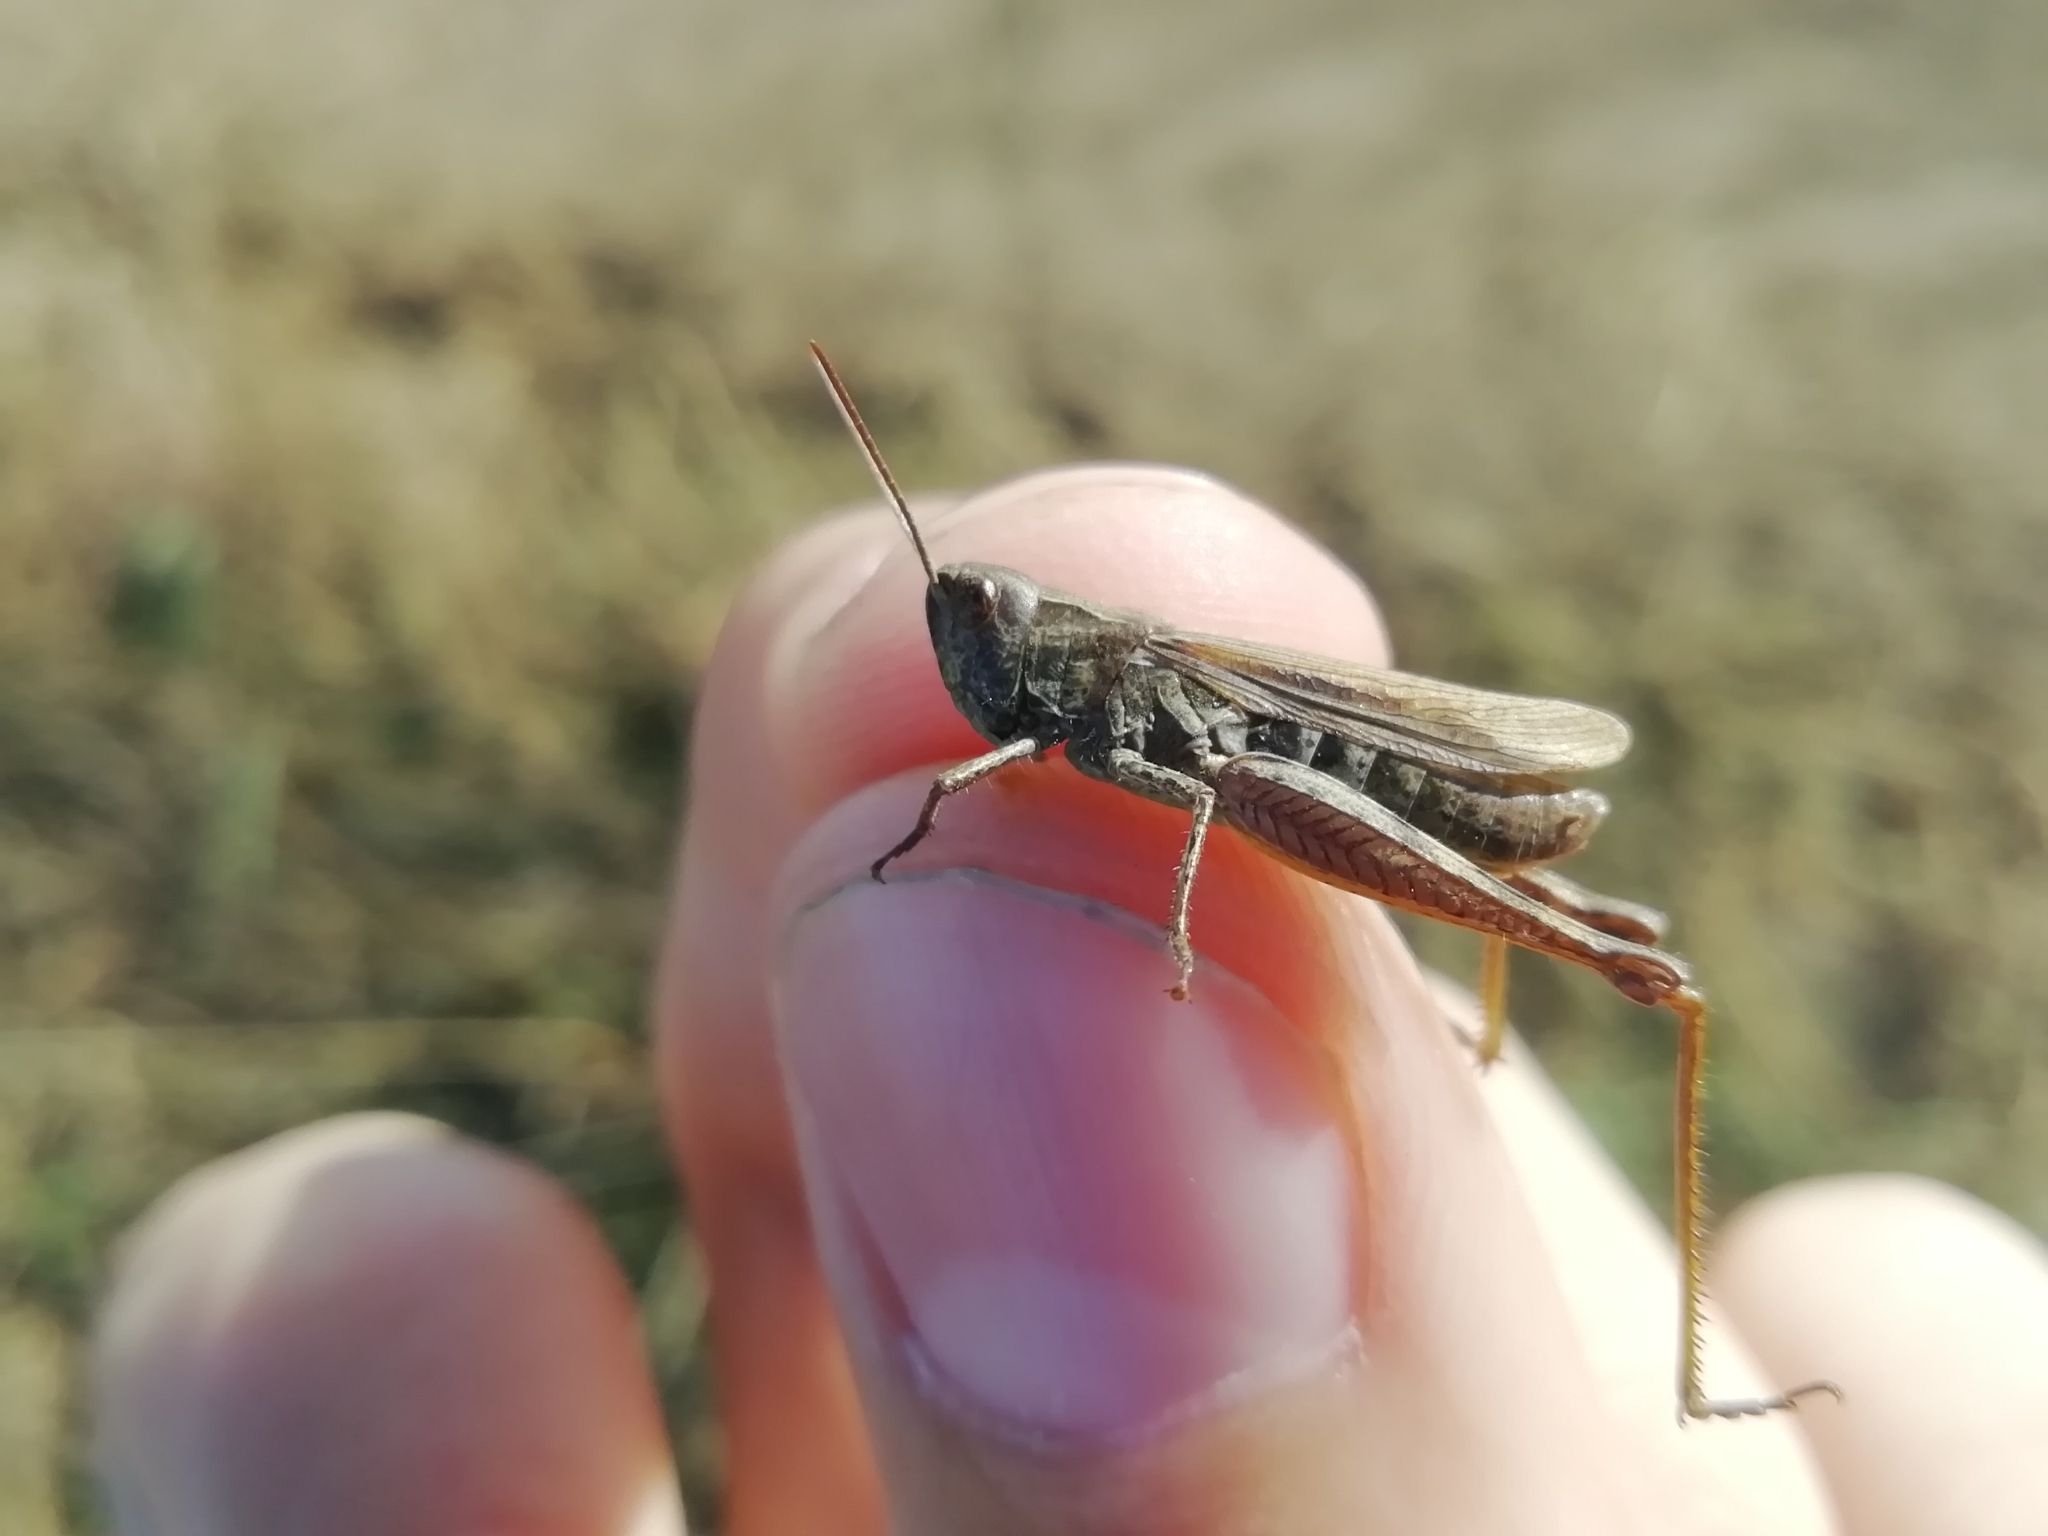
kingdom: Animalia
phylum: Arthropoda
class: Insecta
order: Orthoptera
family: Acrididae
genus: Chorthippus
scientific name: Chorthippus apricarius
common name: Upland field grasshopper
